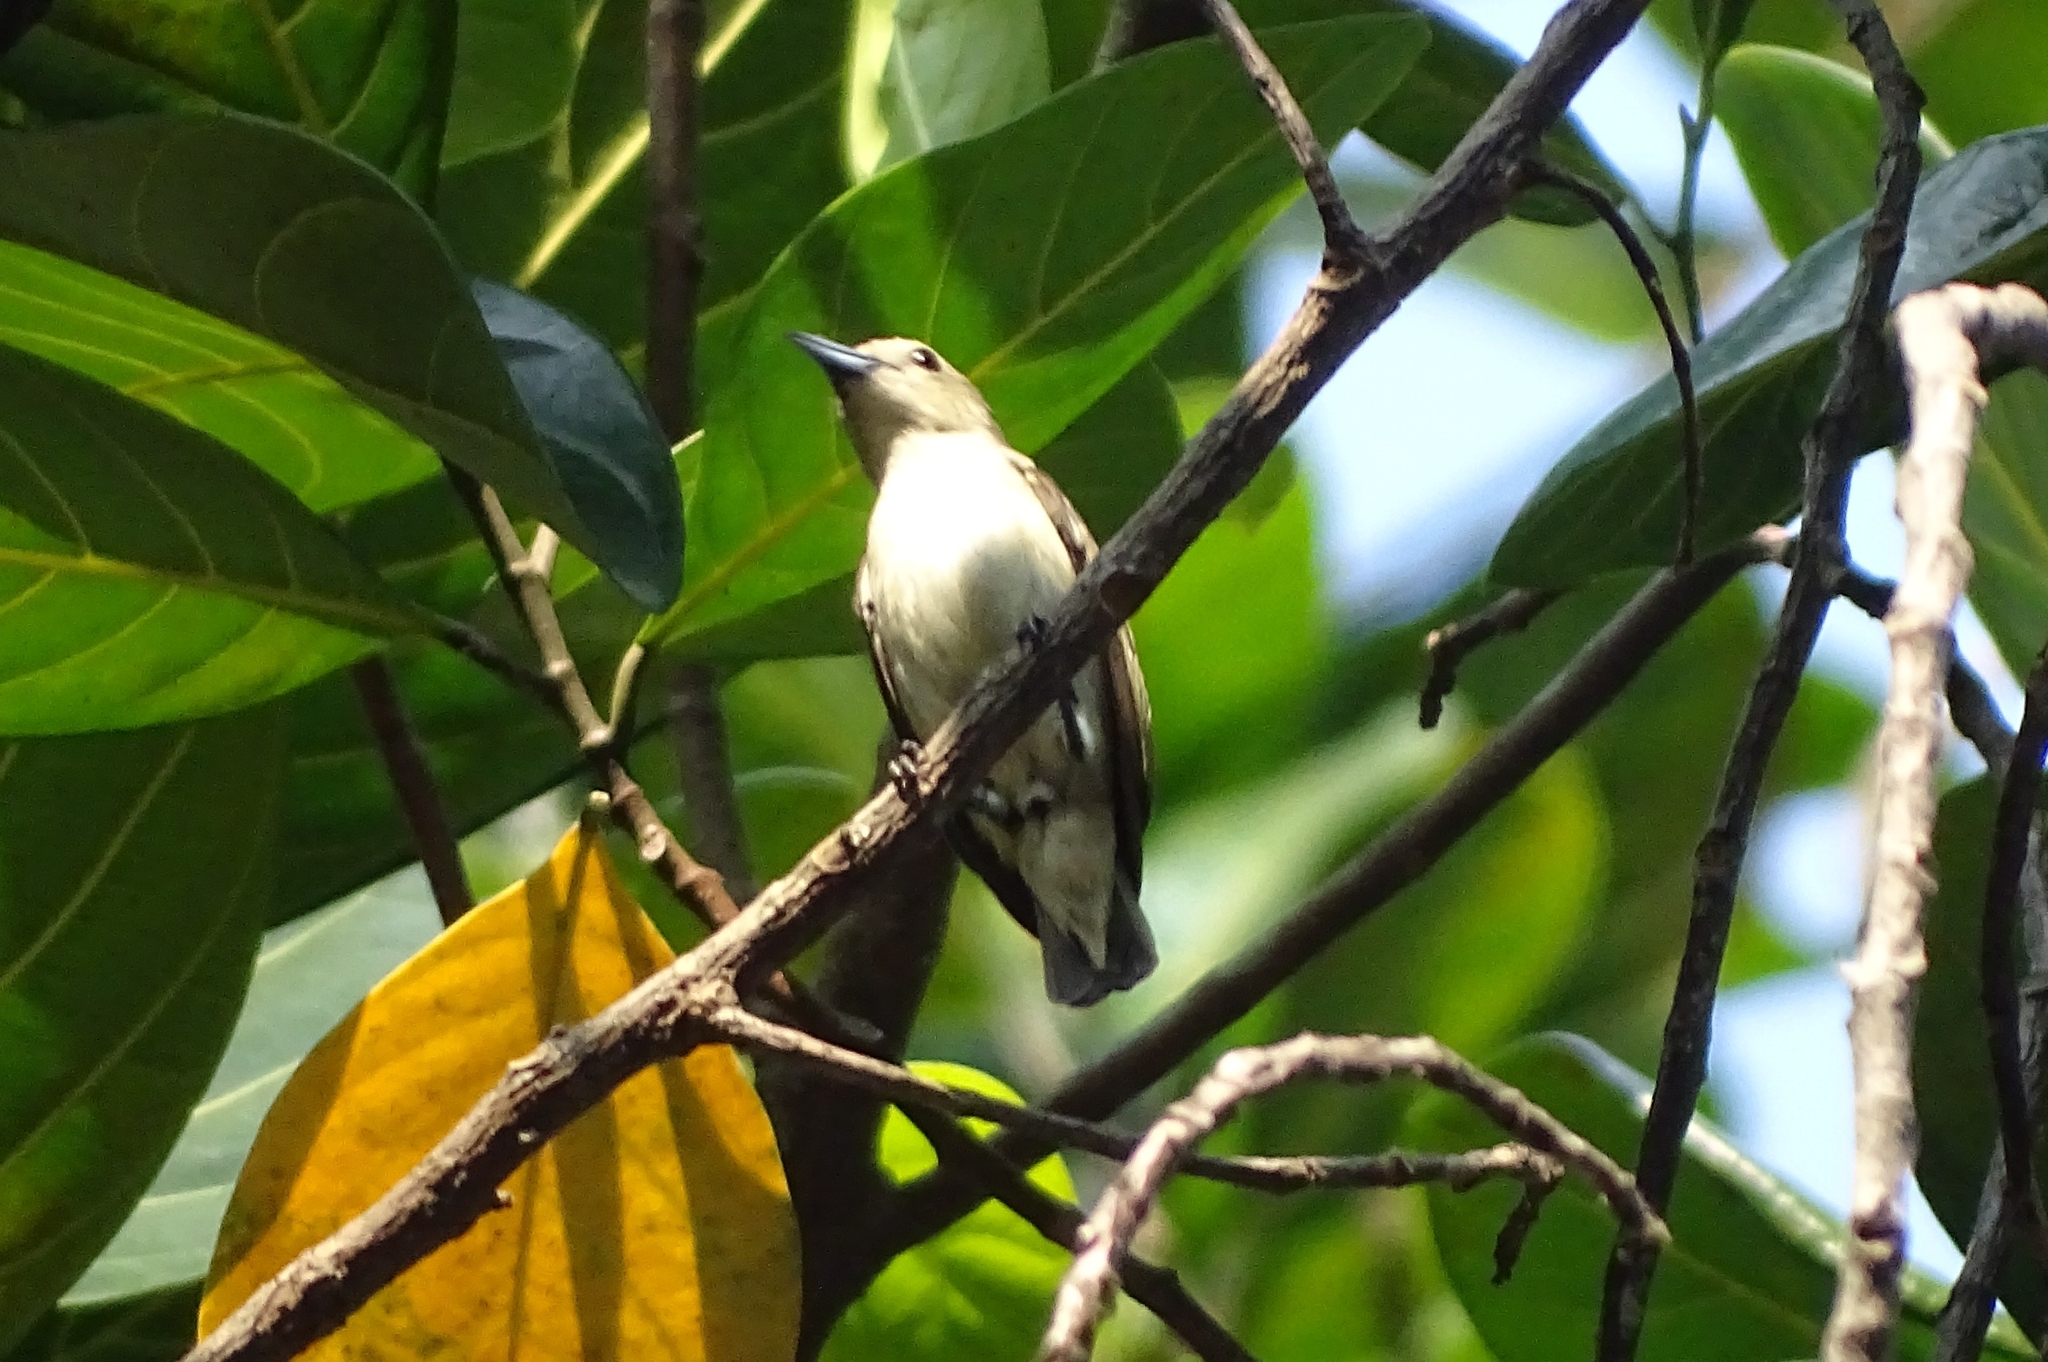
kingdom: Animalia
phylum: Chordata
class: Aves
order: Passeriformes
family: Dicaeidae
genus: Dicaeum
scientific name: Dicaeum concolor
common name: Nilgiri flowerpecker
